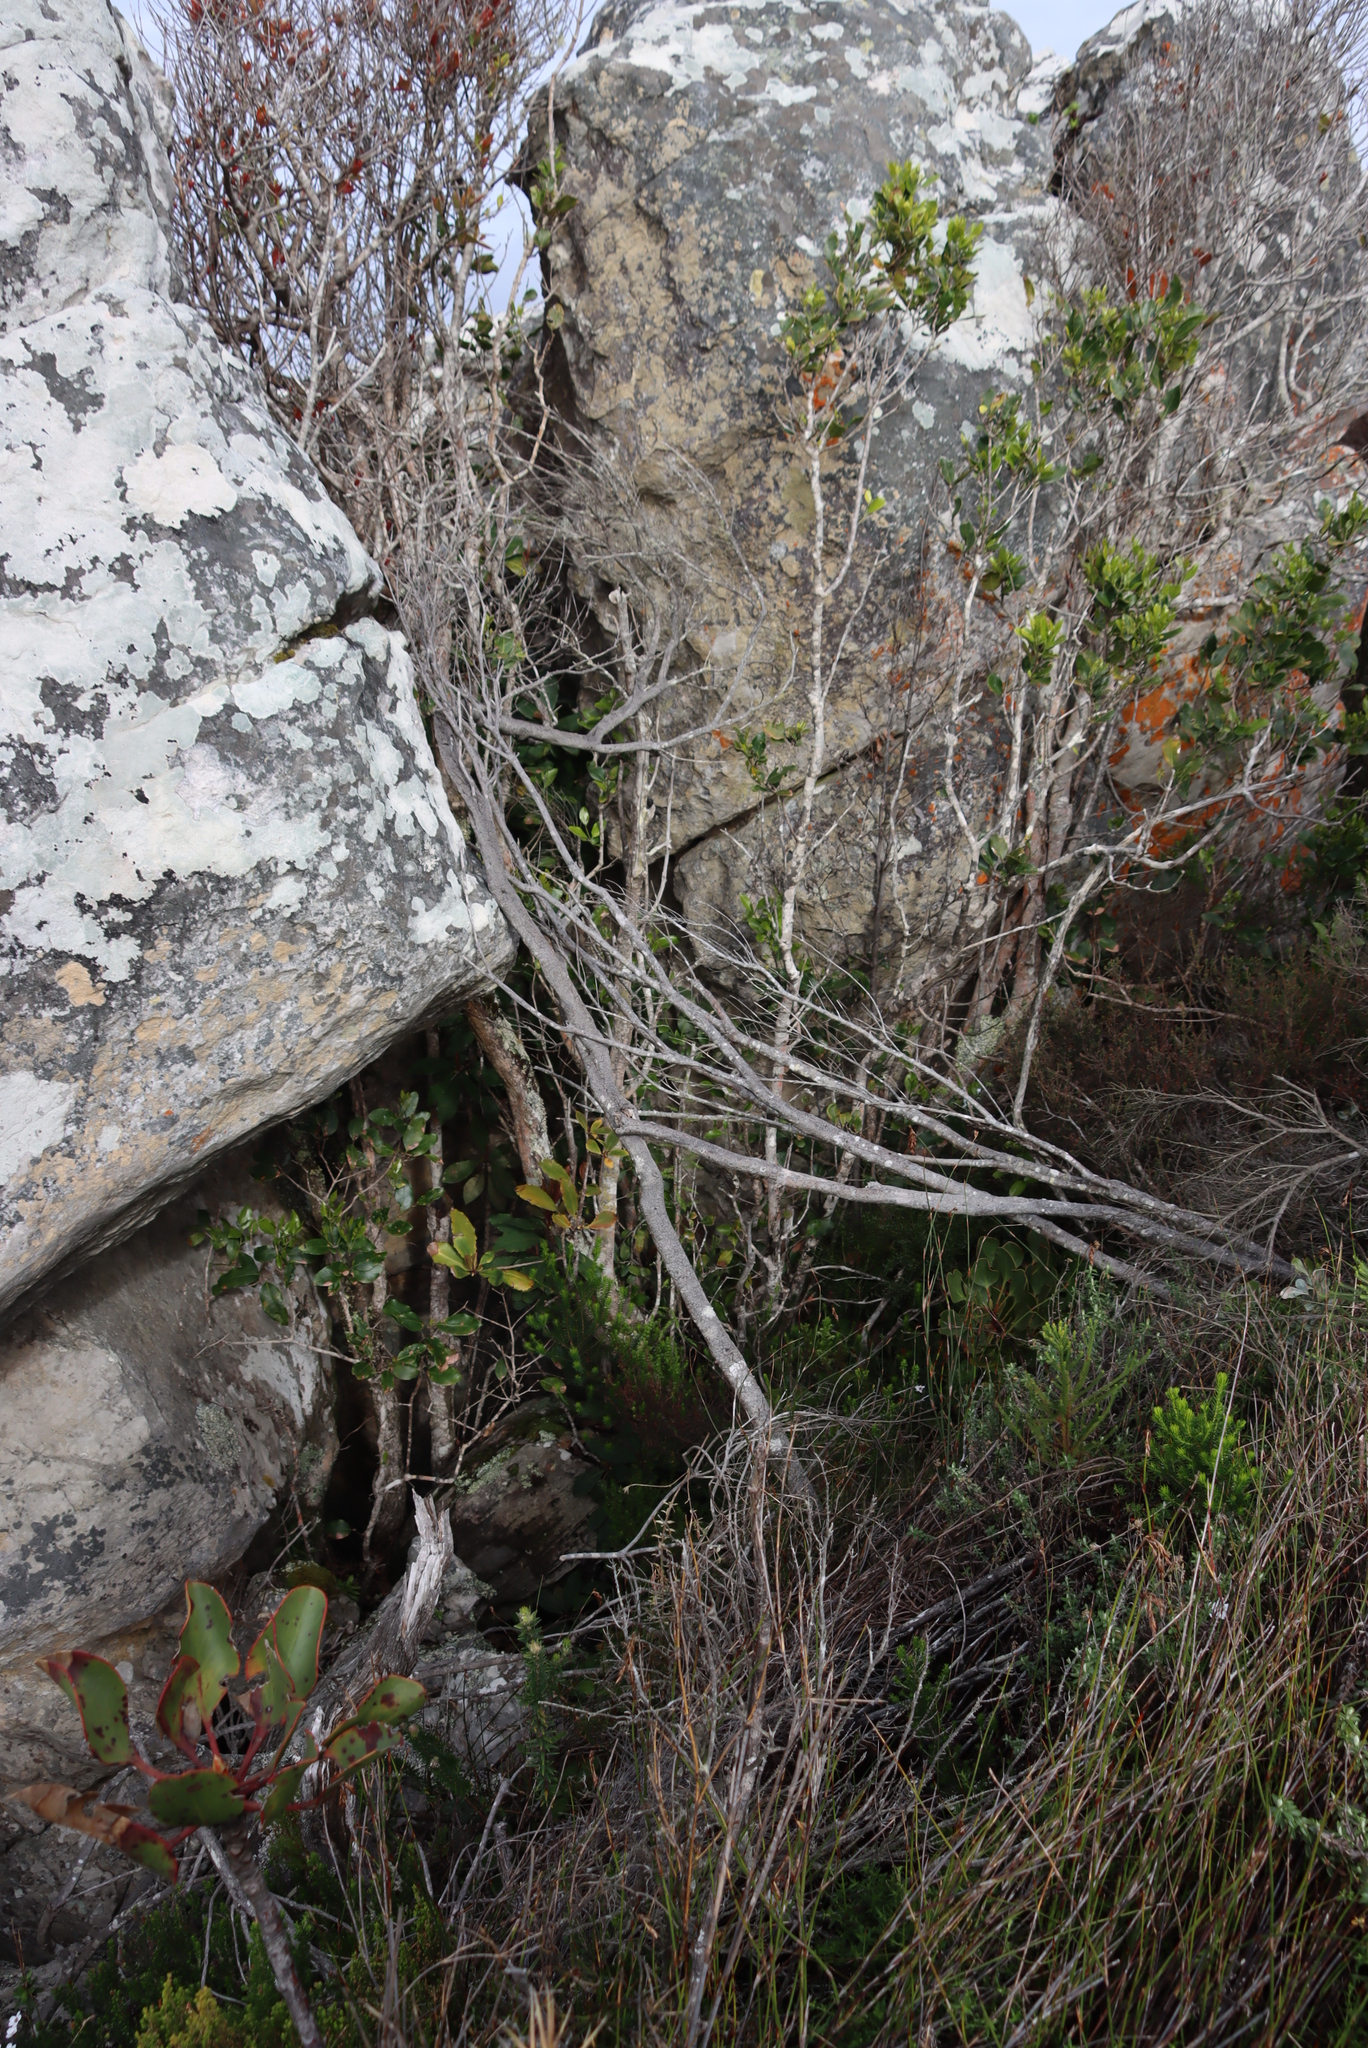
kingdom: Plantae
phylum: Tracheophyta
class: Magnoliopsida
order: Ericales
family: Primulaceae
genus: Myrsine
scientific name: Myrsine melanophloeos
